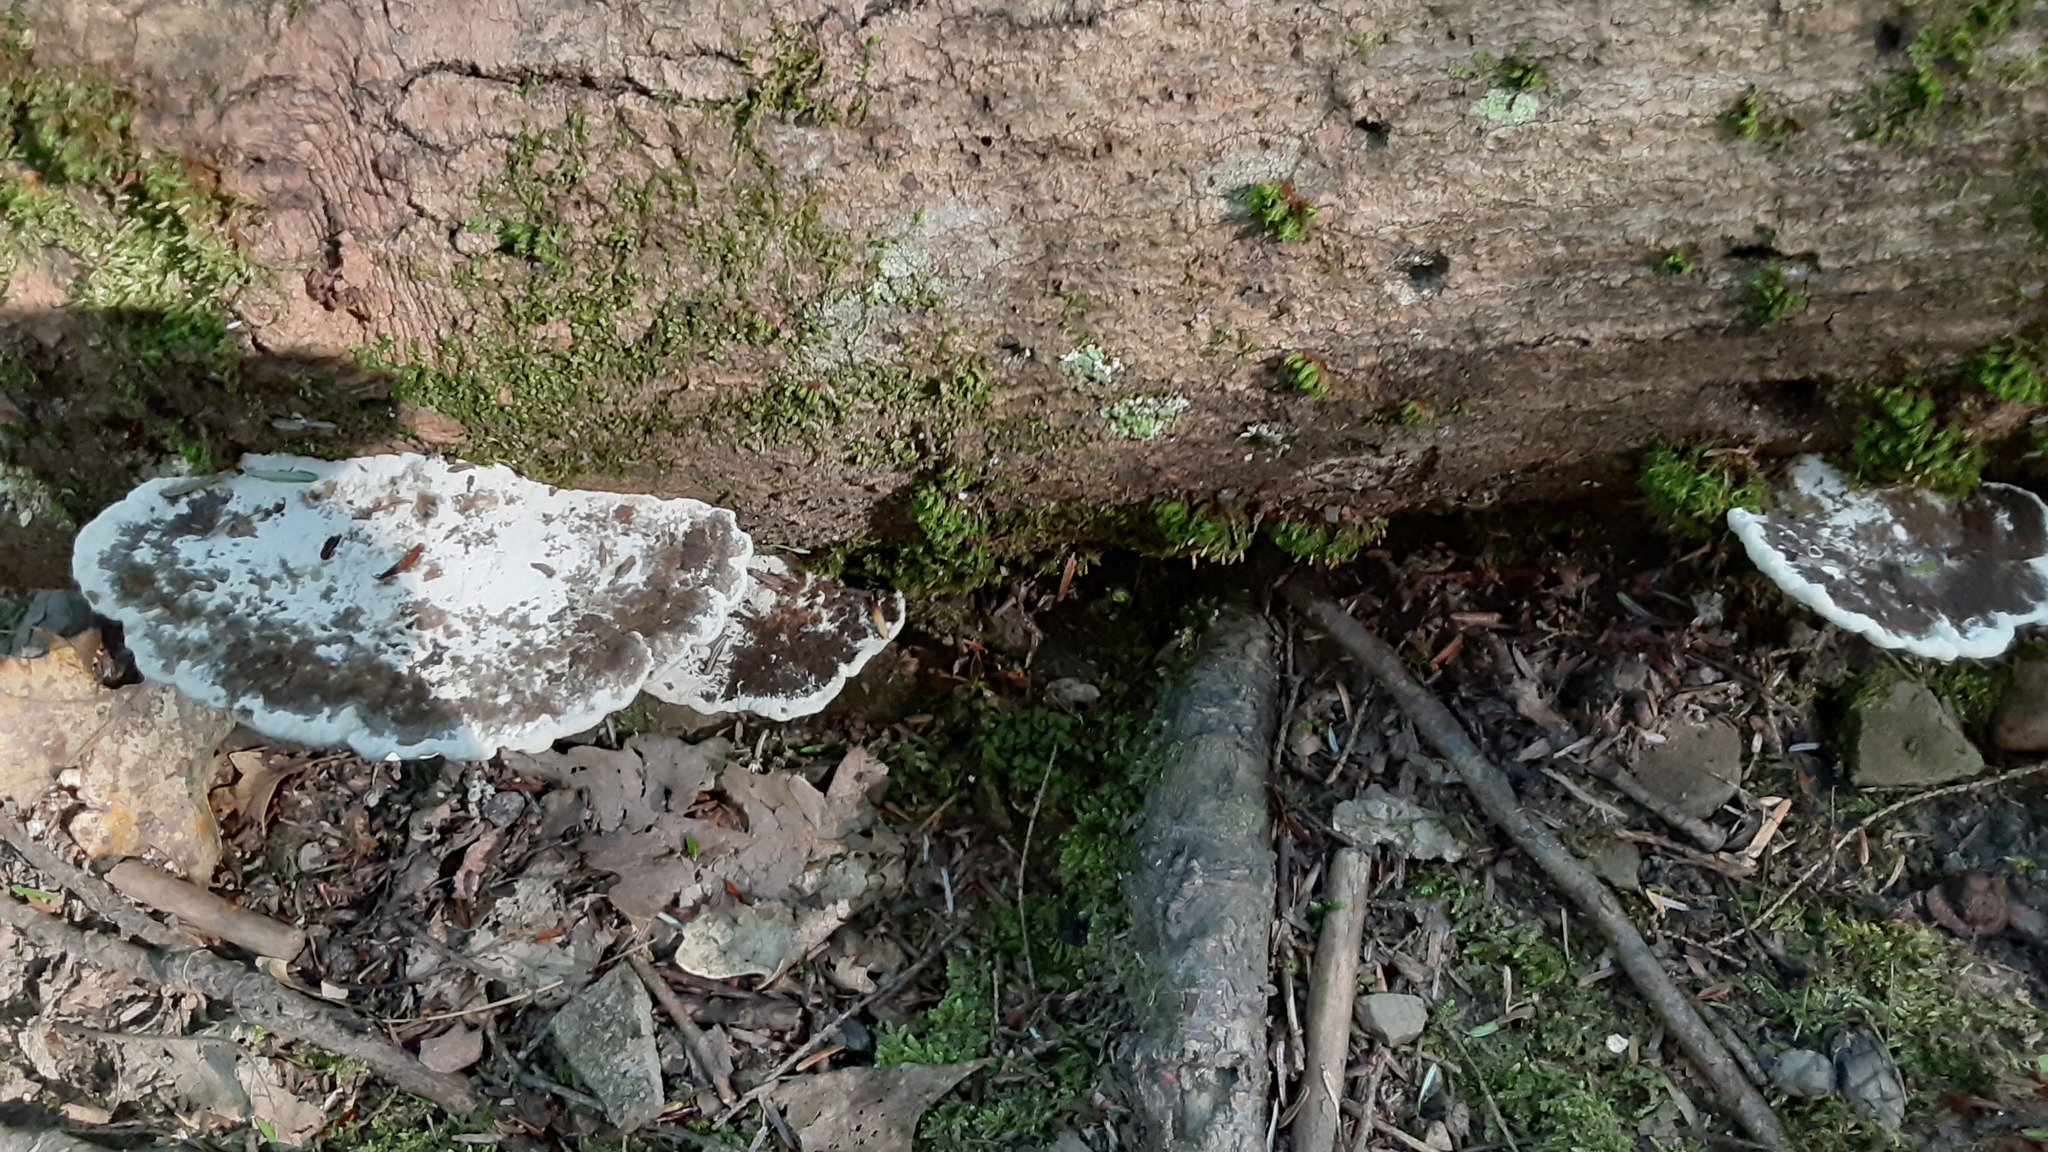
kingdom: Fungi
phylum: Basidiomycota
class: Agaricomycetes
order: Polyporales
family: Polyporaceae
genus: Daedaleopsis
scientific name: Daedaleopsis confragosa
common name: Blushing bracket
